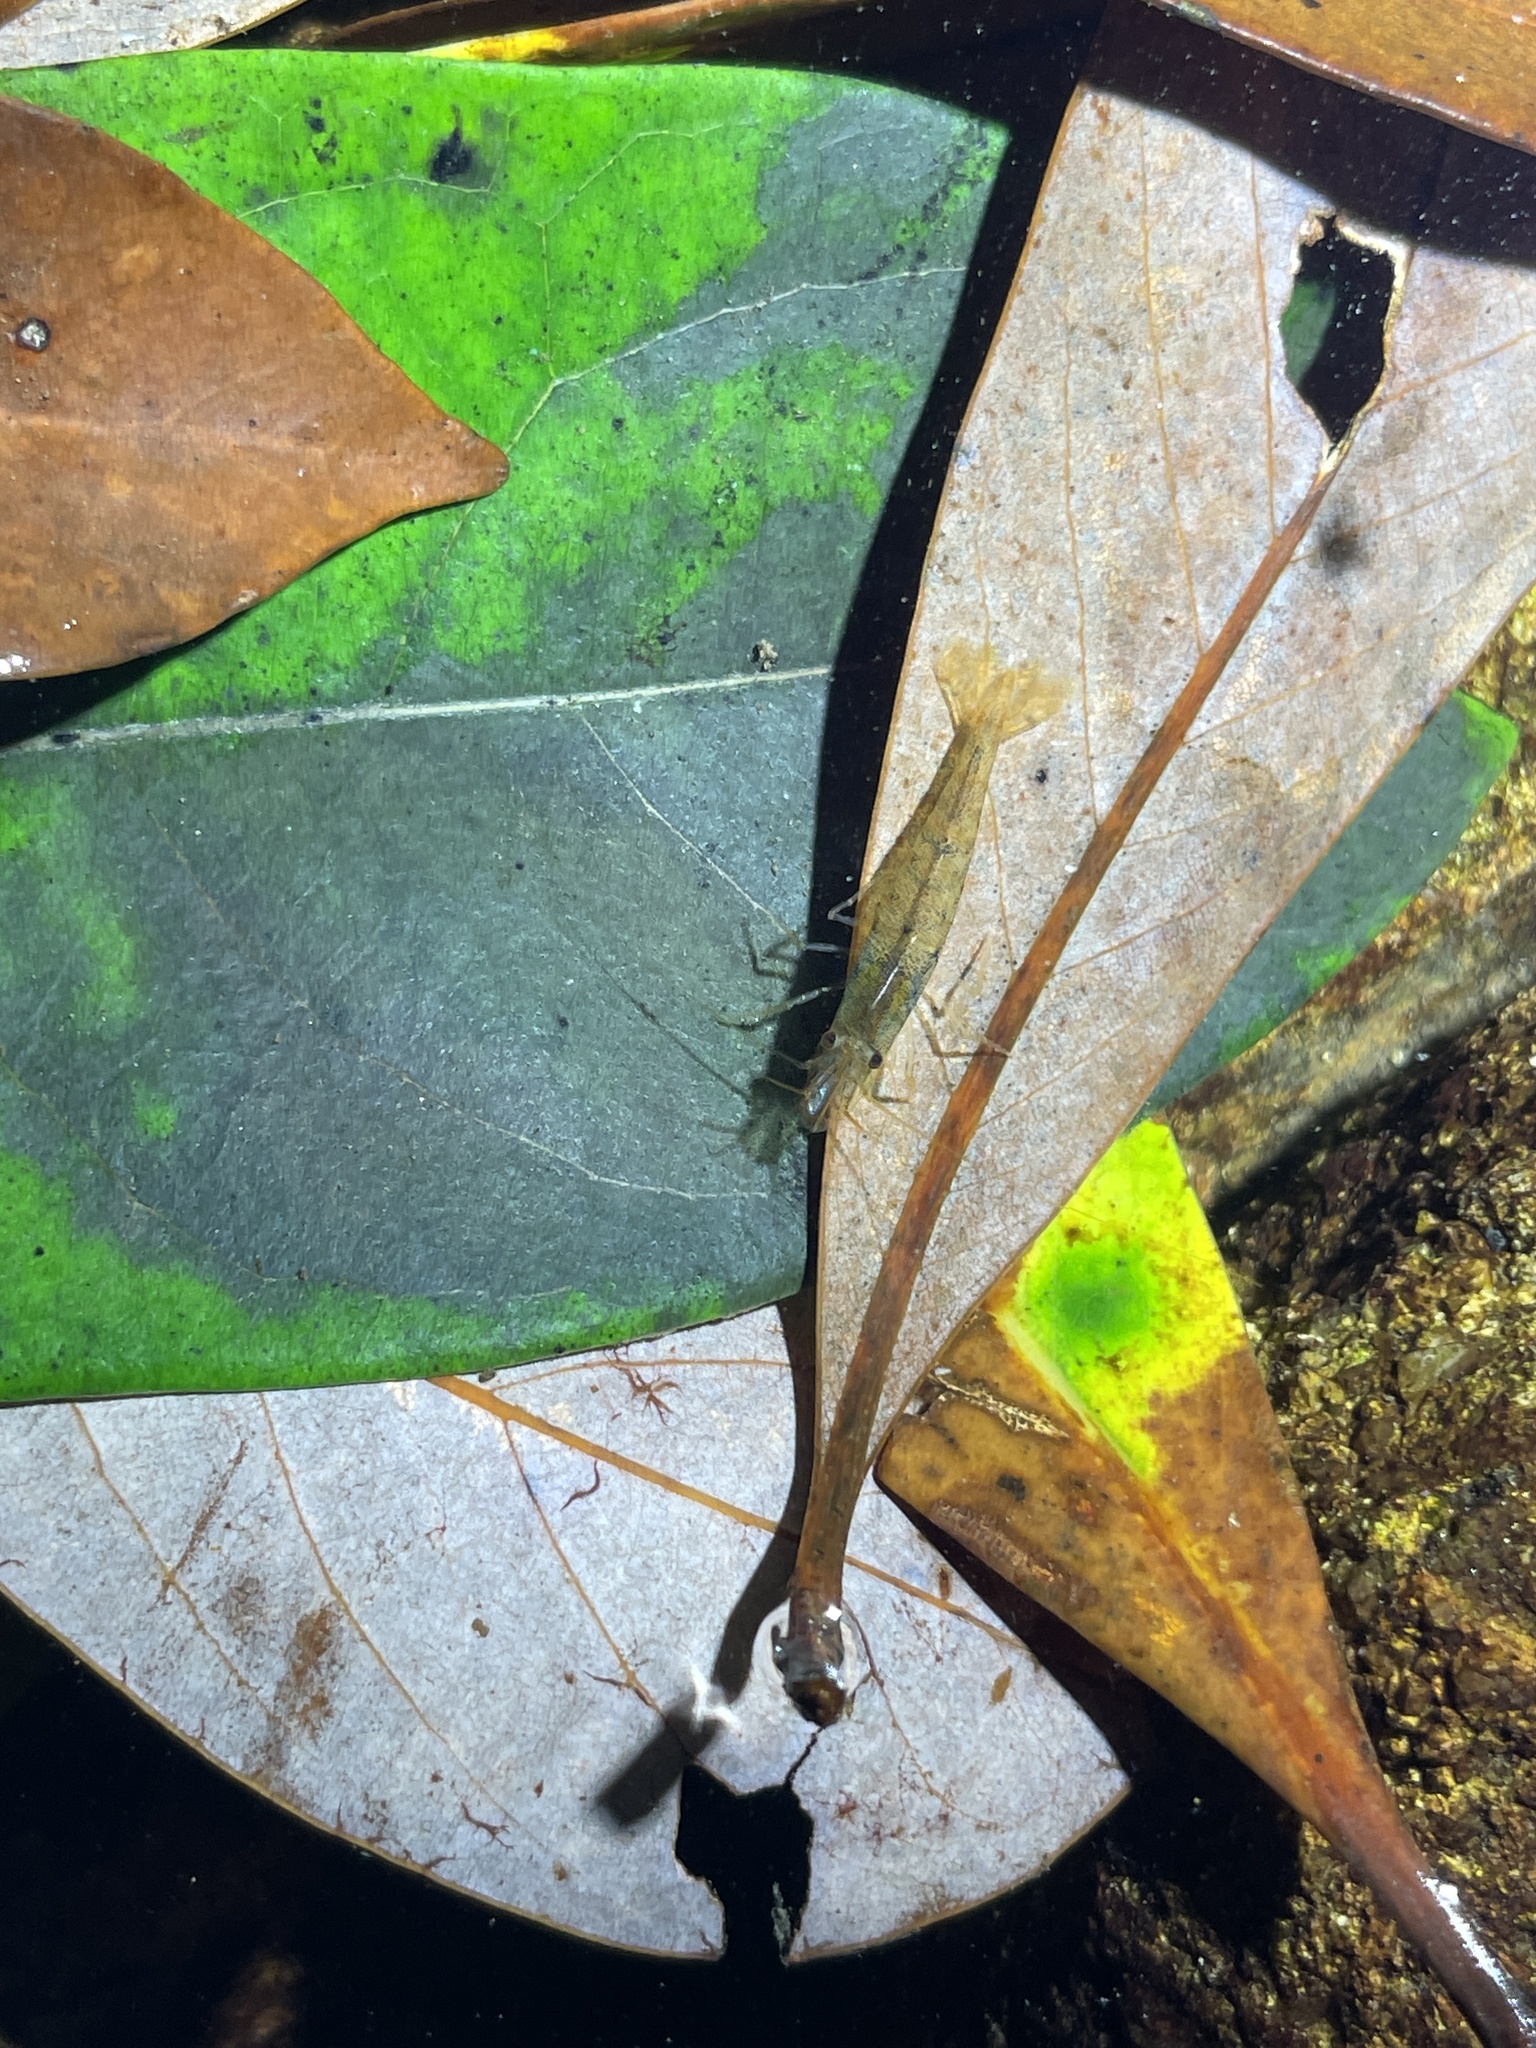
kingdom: Animalia
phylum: Arthropoda
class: Malacostraca
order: Decapoda
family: Atyidae
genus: Caridina
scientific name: Caridina cantonensis
